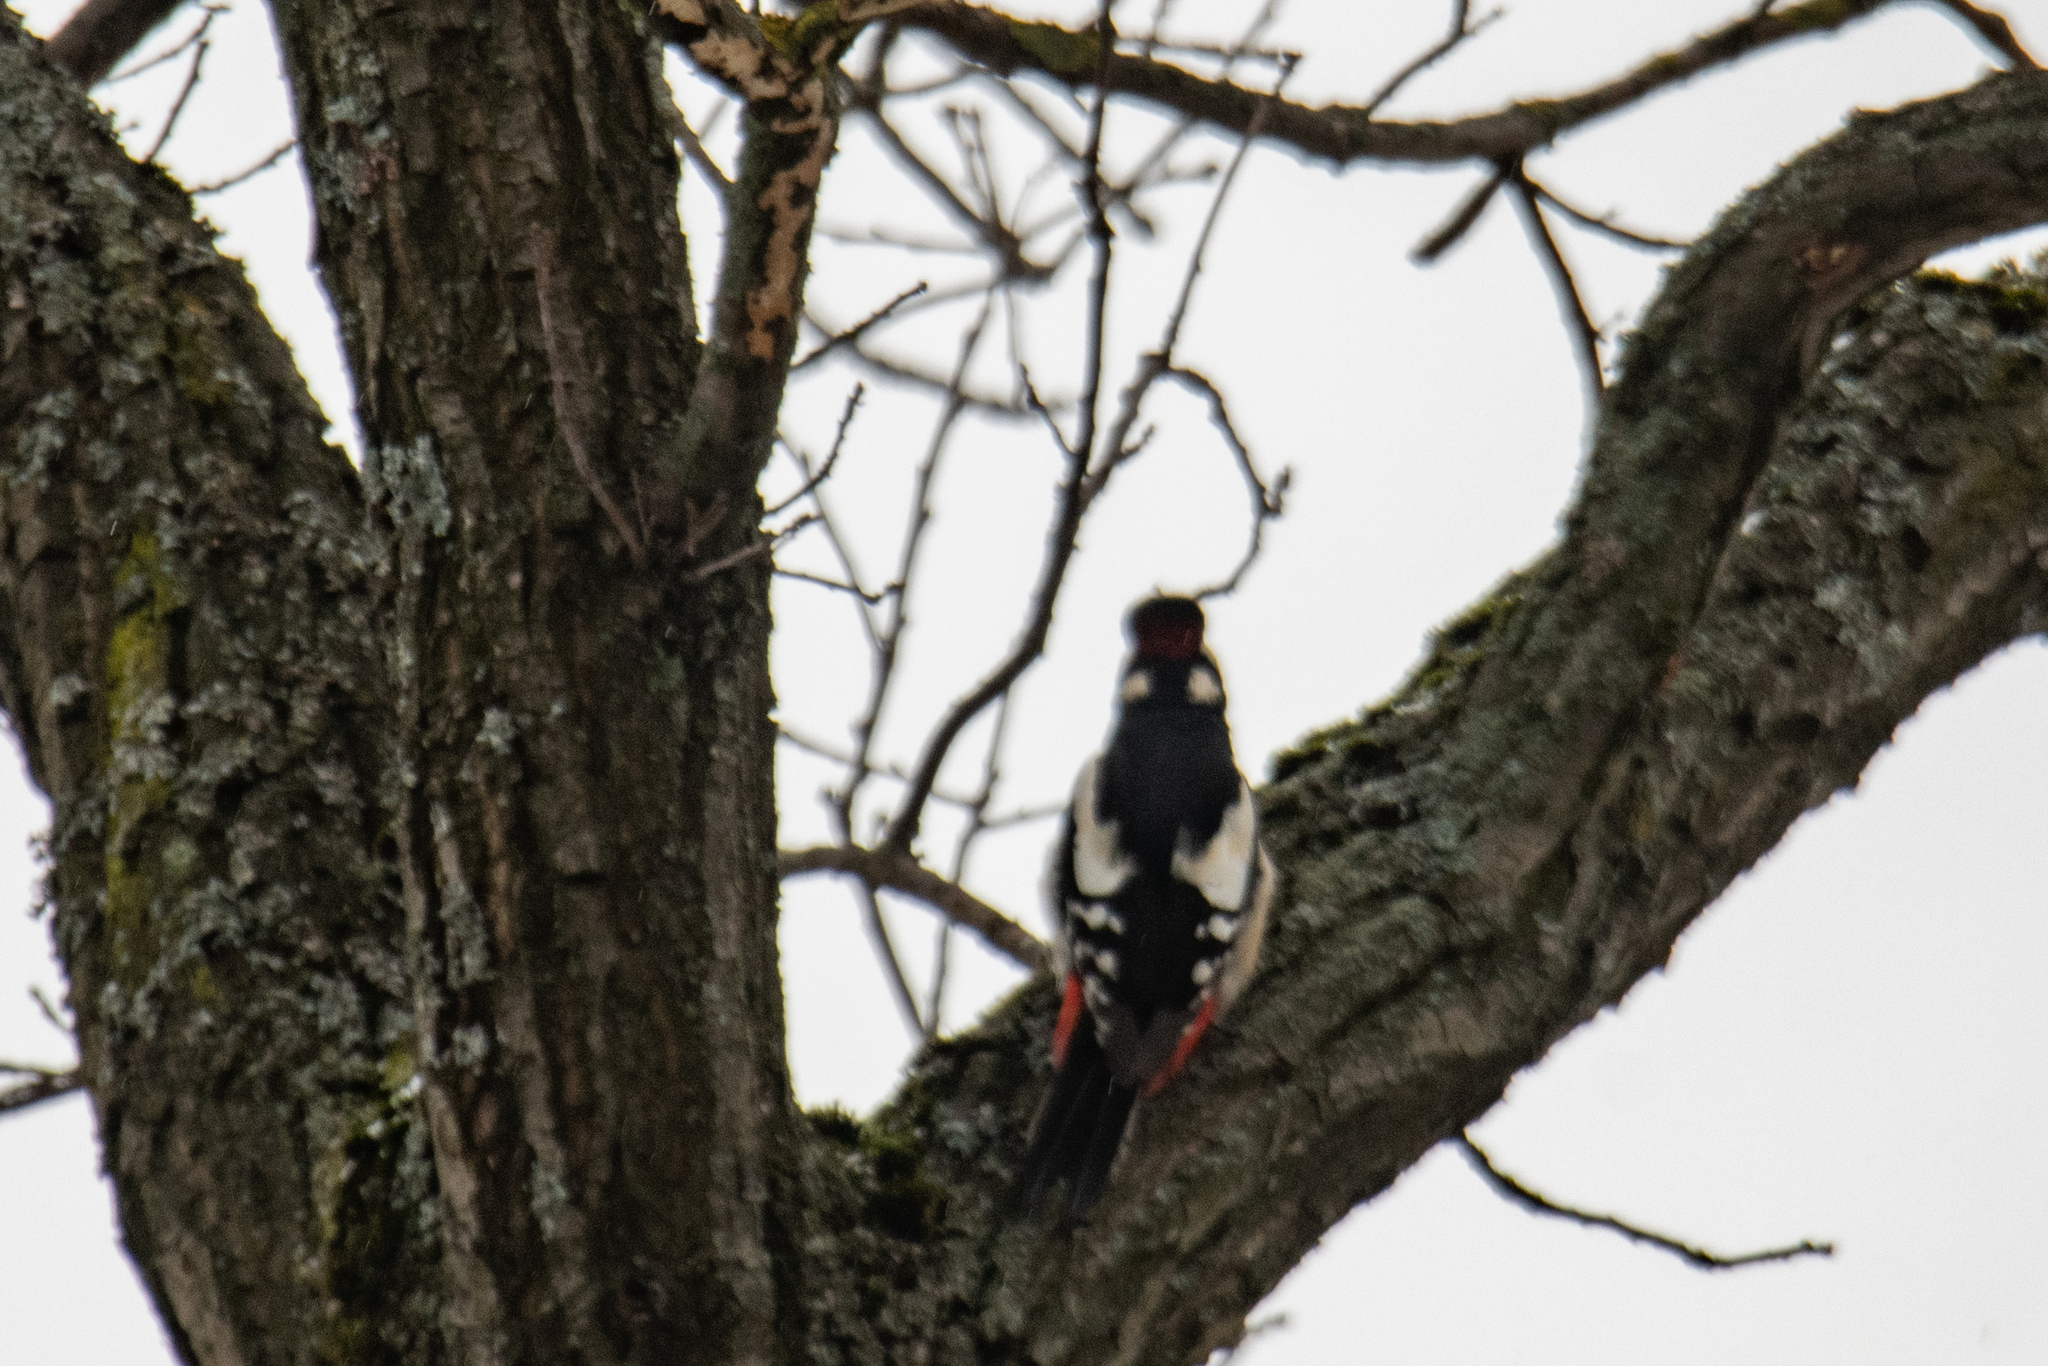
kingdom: Animalia
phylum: Chordata
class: Aves
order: Piciformes
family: Picidae
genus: Dendrocopos
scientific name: Dendrocopos major
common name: Great spotted woodpecker
